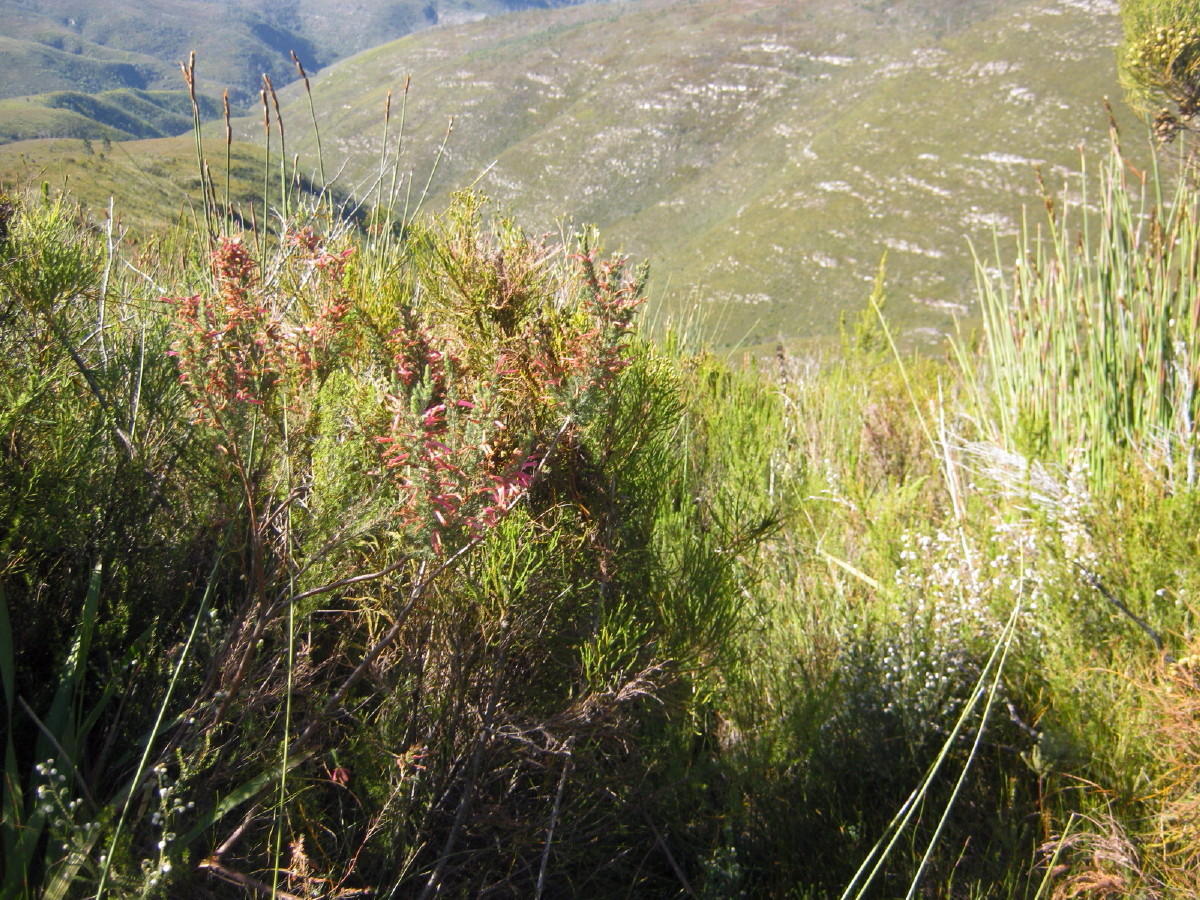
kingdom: Plantae
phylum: Tracheophyta
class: Magnoliopsida
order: Ericales
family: Ericaceae
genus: Erica
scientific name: Erica curviflora
